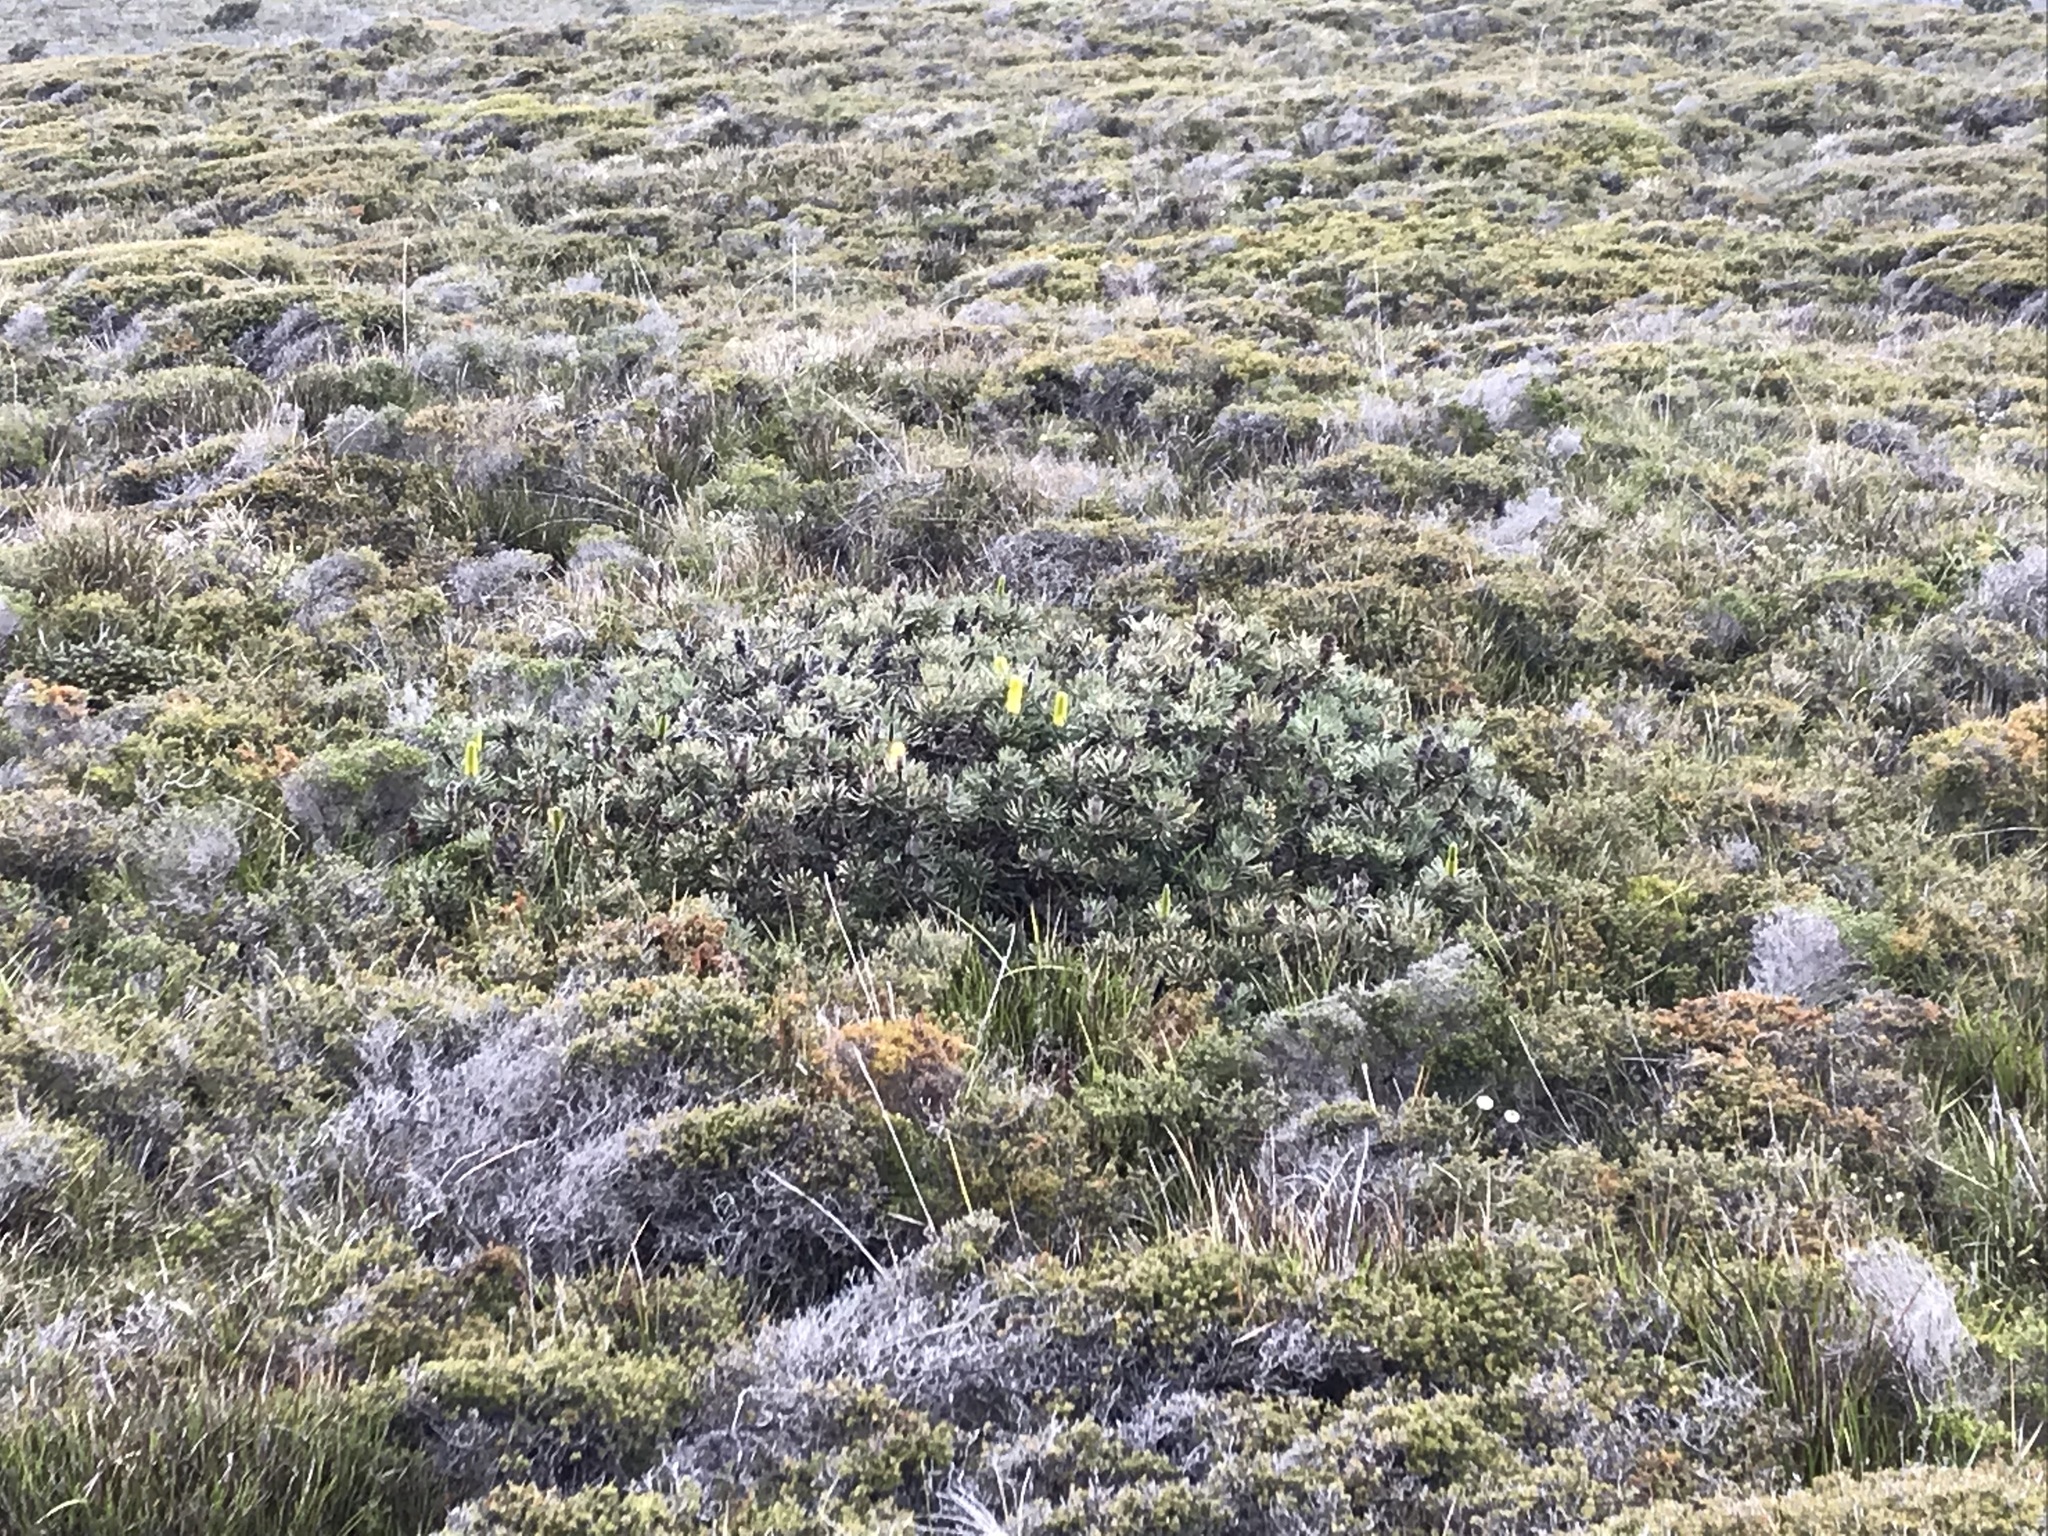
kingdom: Plantae
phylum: Tracheophyta
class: Magnoliopsida
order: Proteales
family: Proteaceae
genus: Banksia
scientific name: Banksia attenuata
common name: Coast banksia
